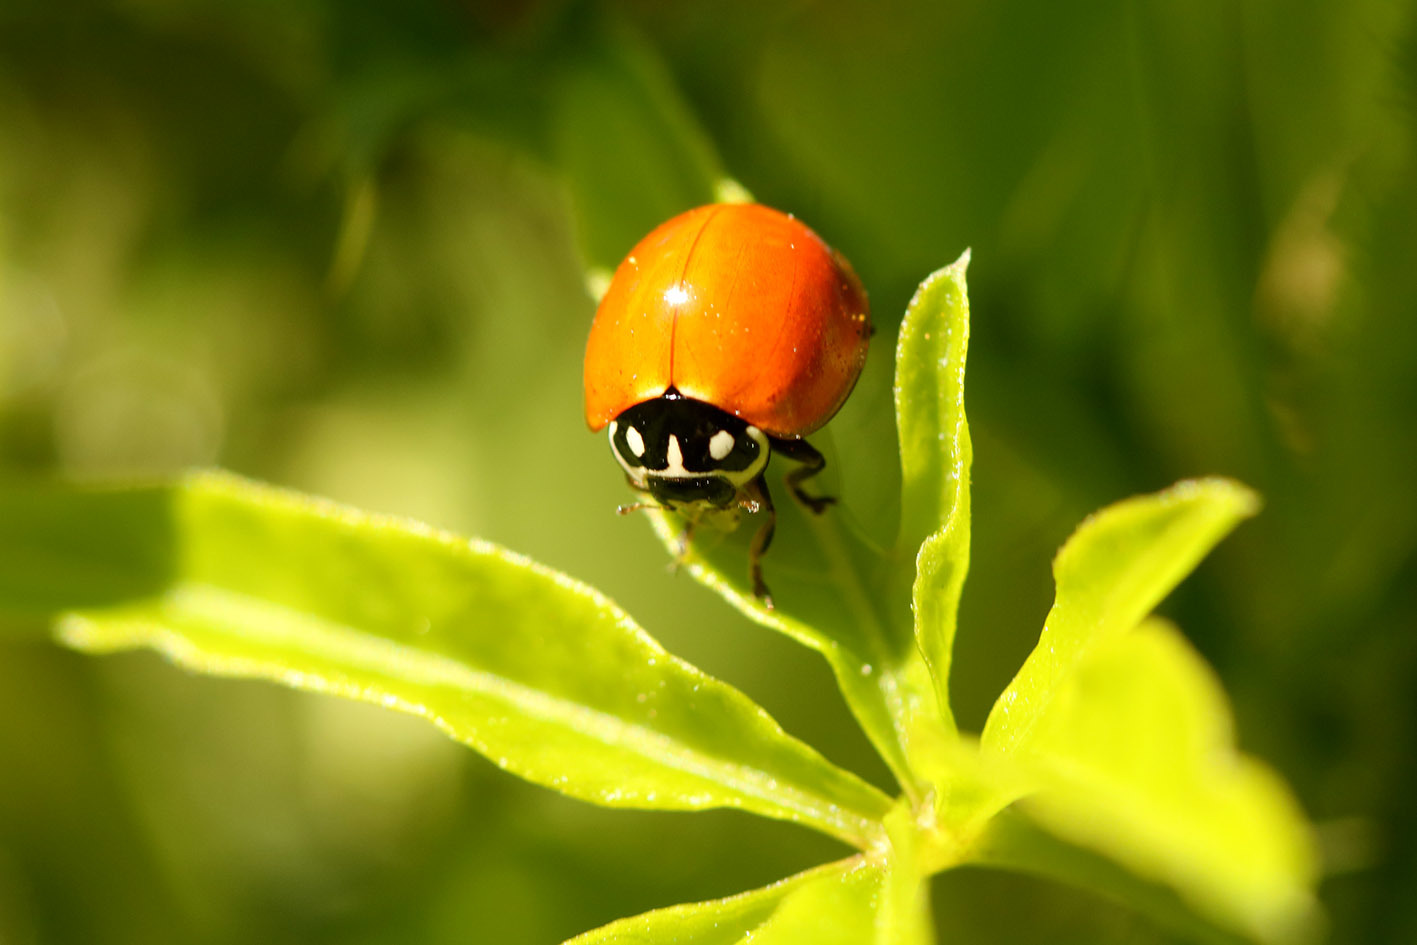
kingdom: Animalia
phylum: Arthropoda
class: Insecta
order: Coleoptera
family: Coccinellidae
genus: Cycloneda
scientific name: Cycloneda sanguinea
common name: Ladybird beetle
